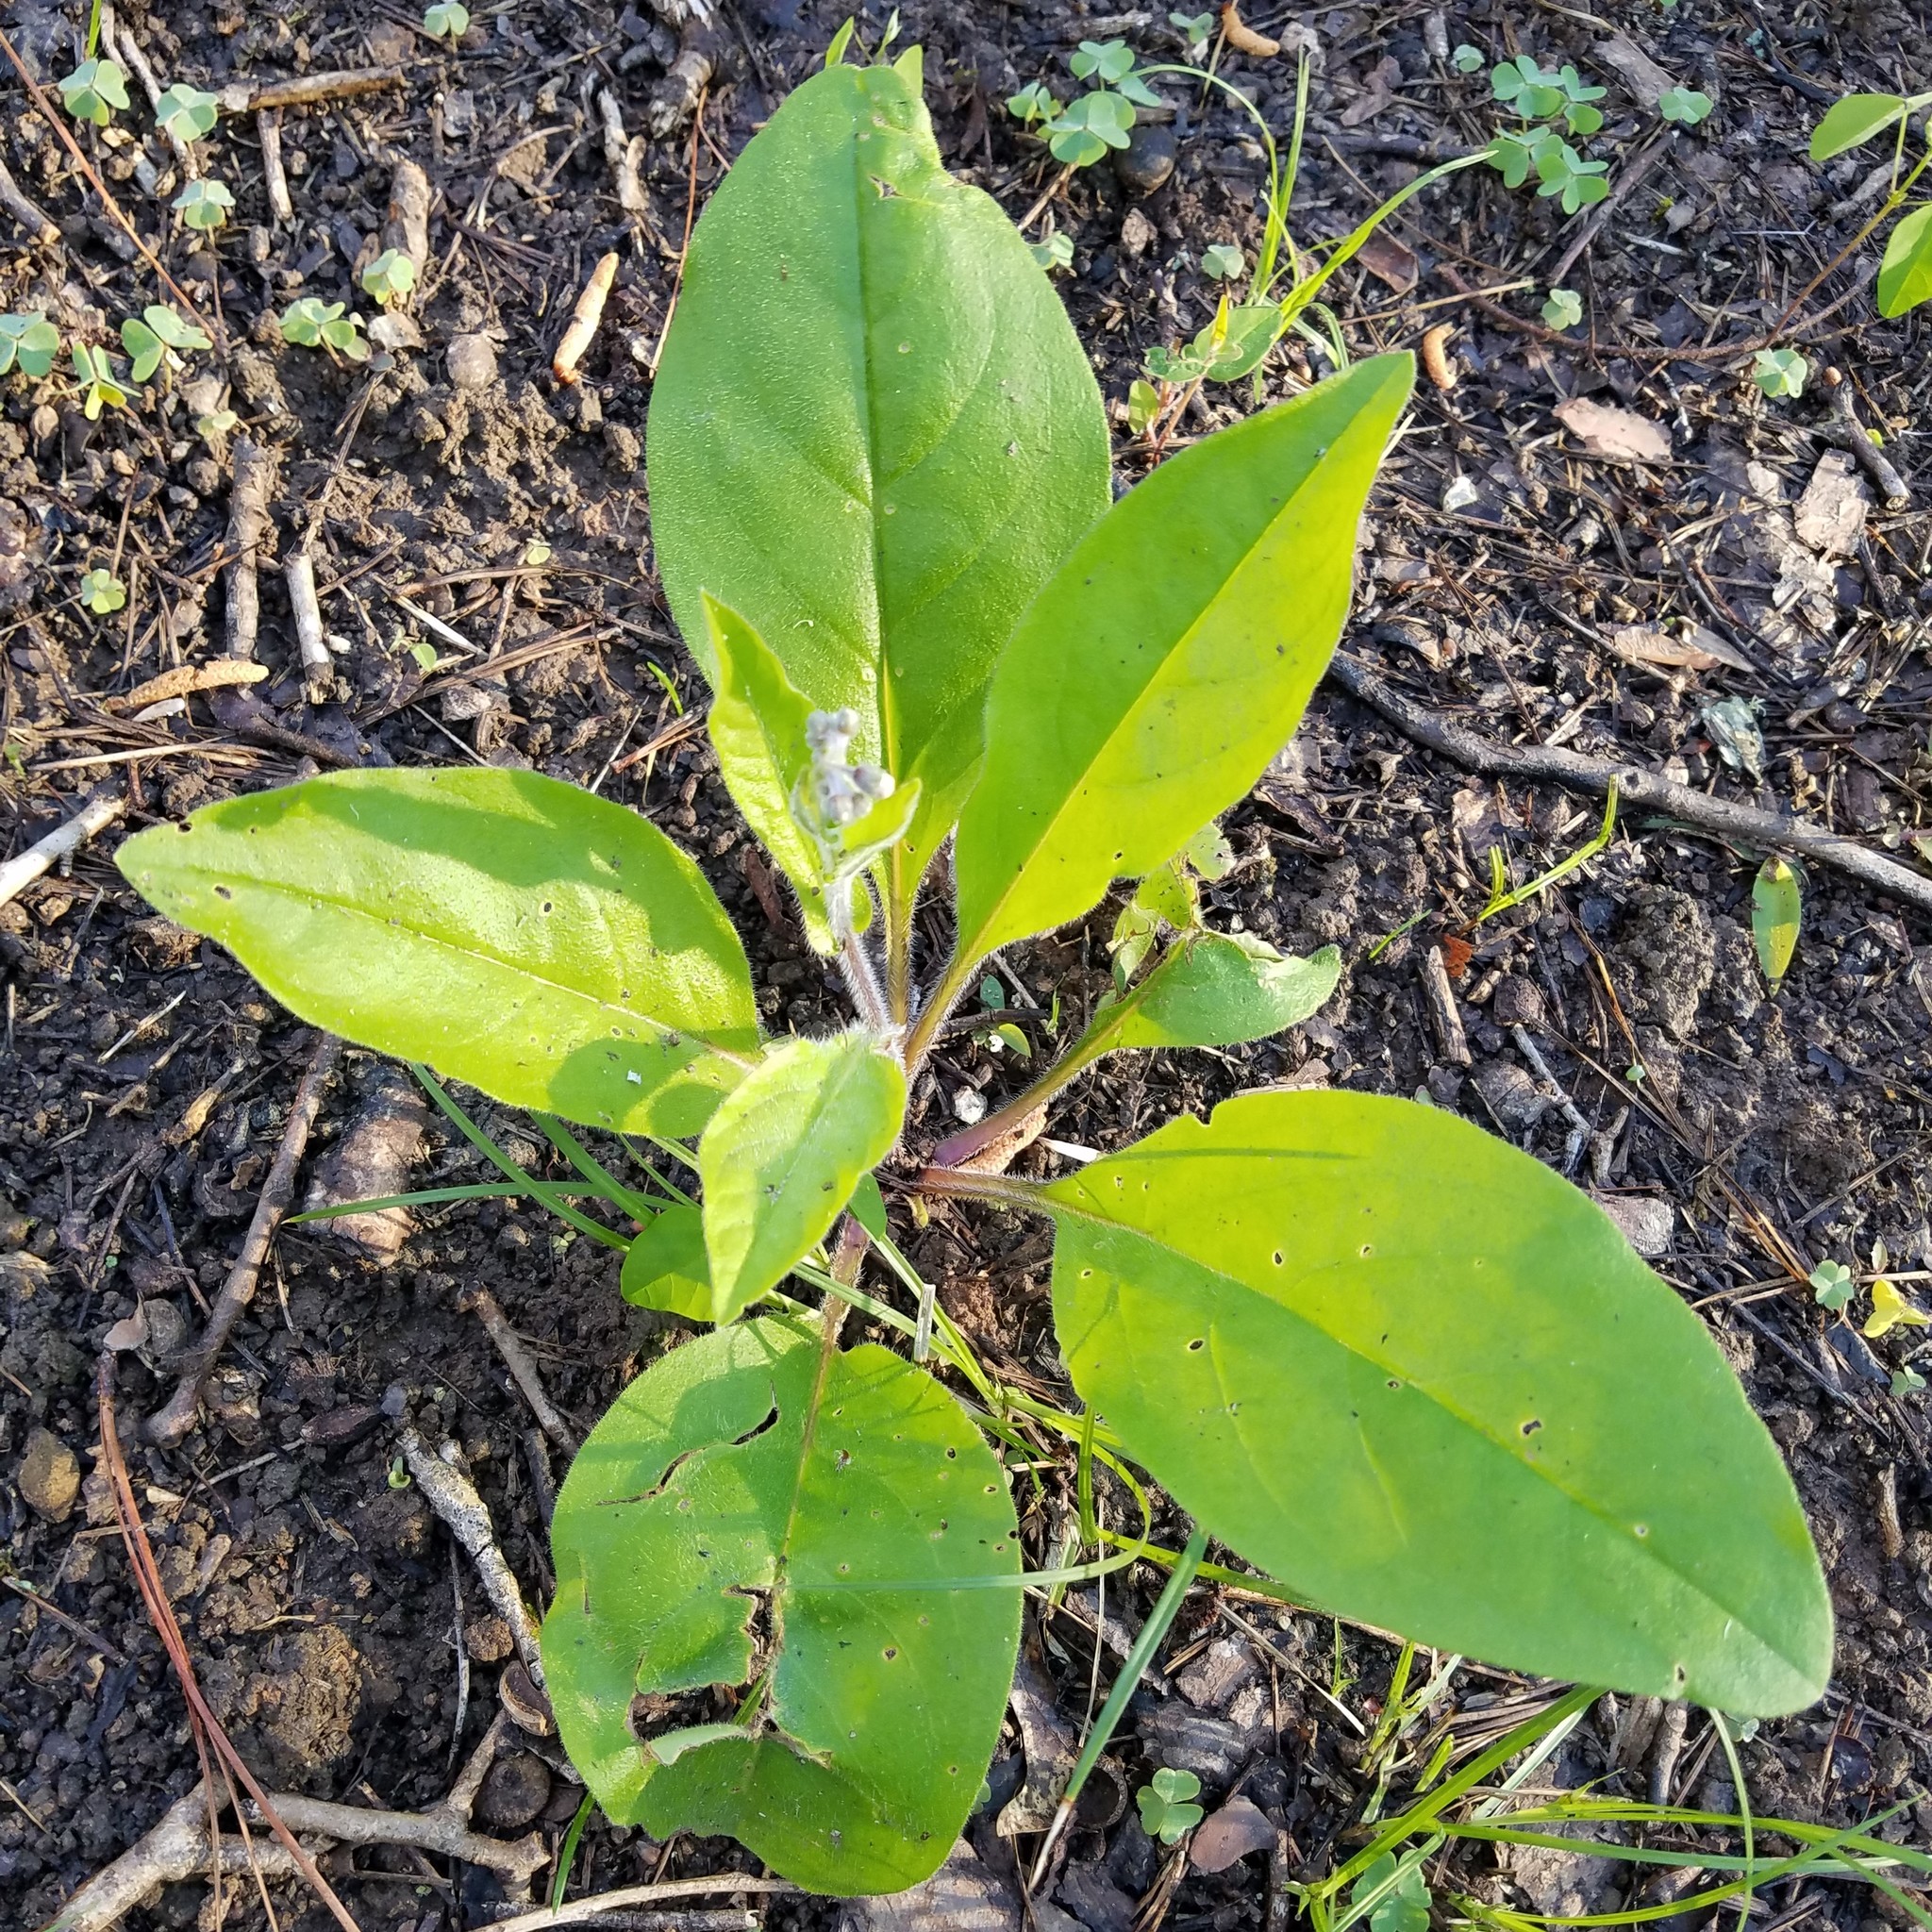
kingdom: Plantae
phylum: Tracheophyta
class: Magnoliopsida
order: Boraginales
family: Boraginaceae
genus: Andersonglossum
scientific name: Andersonglossum virginianum
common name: Wild comfrey
